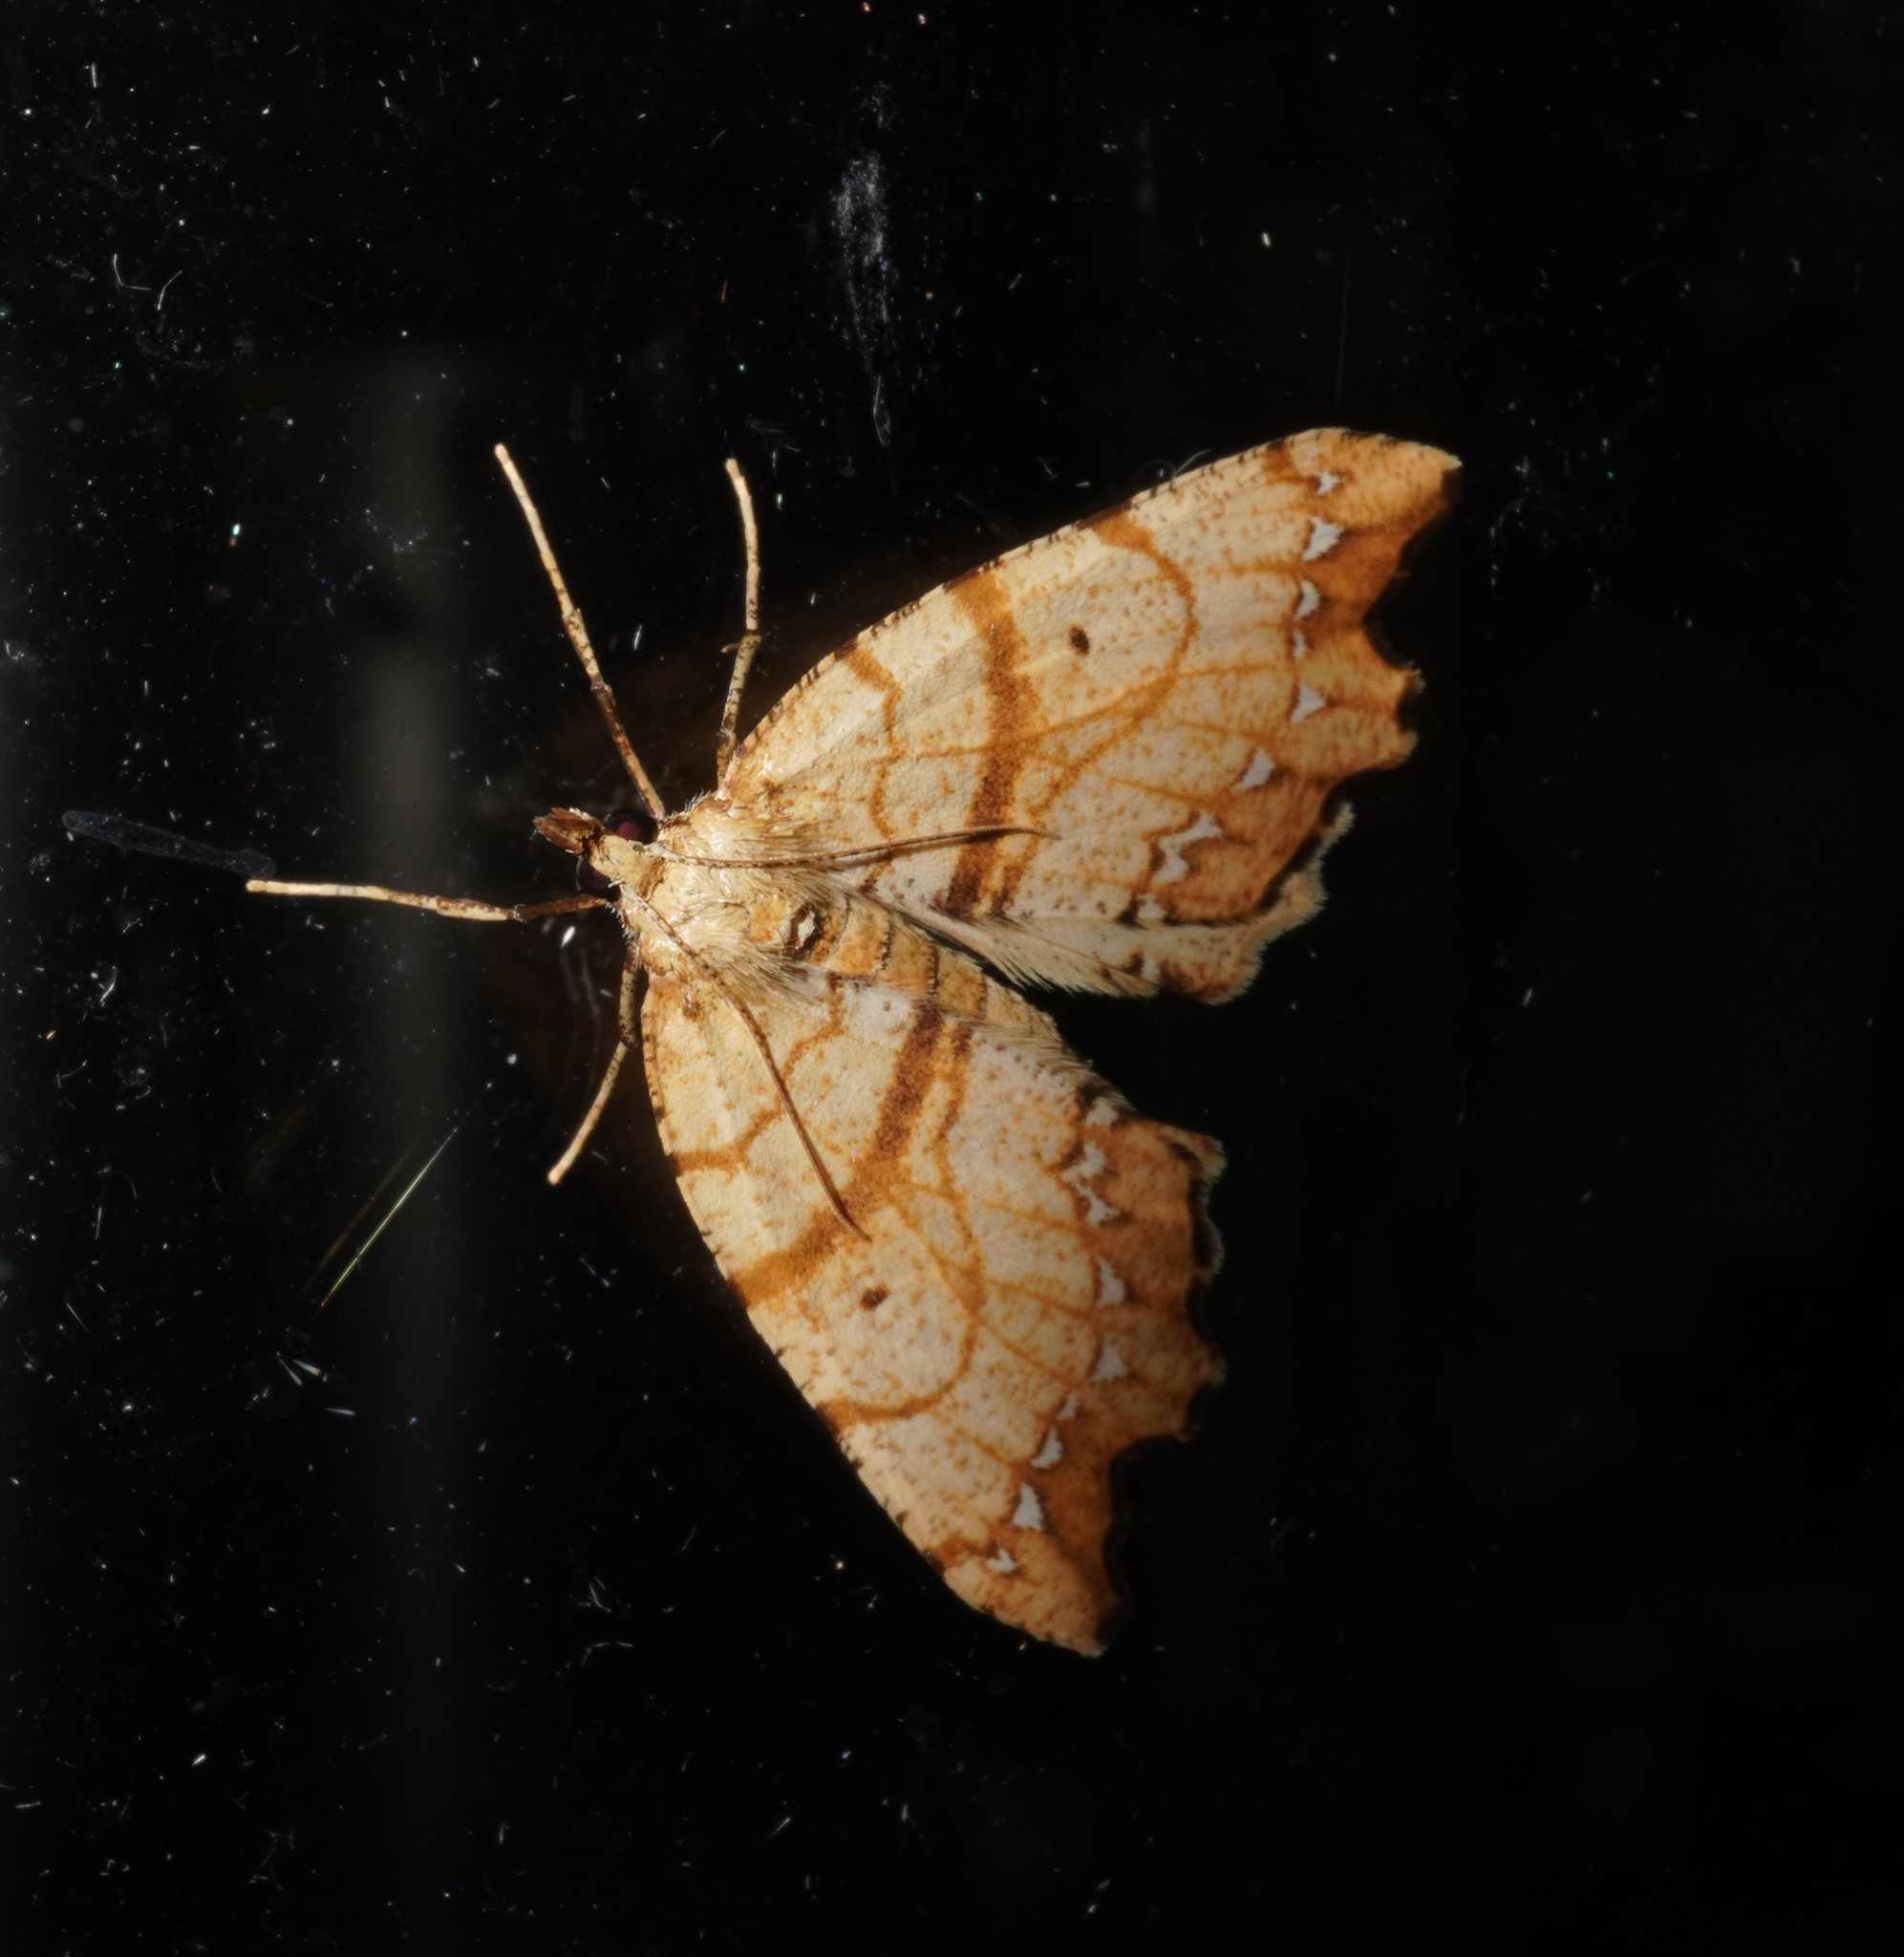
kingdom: Animalia
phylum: Arthropoda
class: Insecta
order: Lepidoptera
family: Geometridae
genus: Chalastra
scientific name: Chalastra pellurgata
